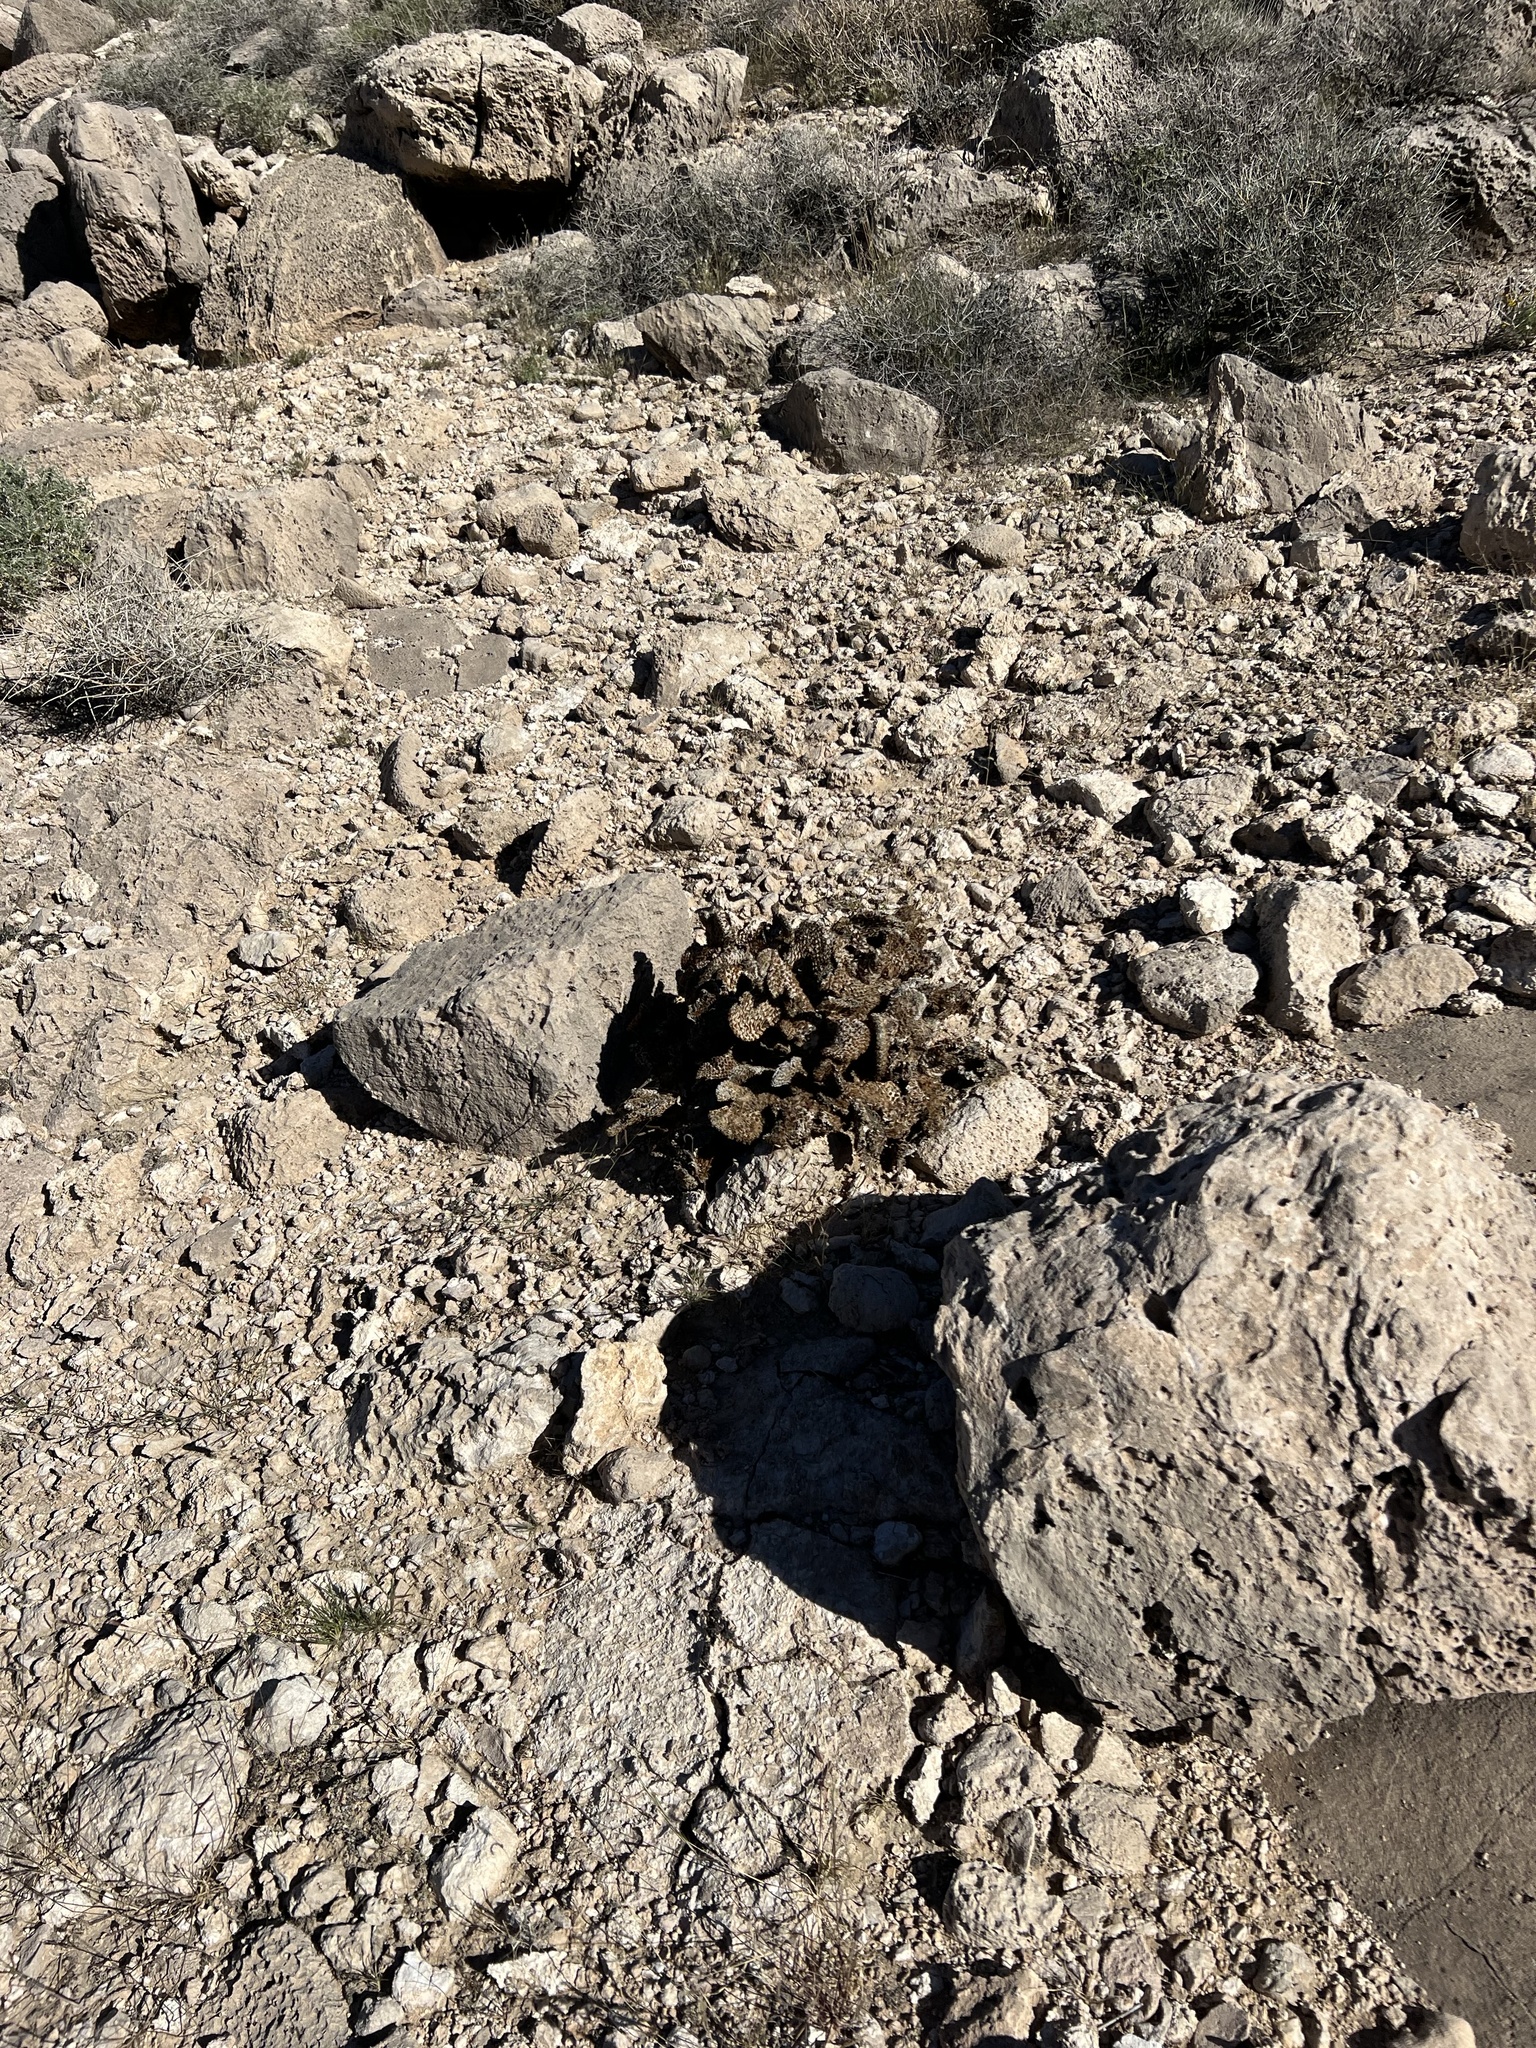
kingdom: Plantae
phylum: Tracheophyta
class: Magnoliopsida
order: Caryophyllales
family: Cactaceae
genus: Opuntia
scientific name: Opuntia basilaris
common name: Beavertail prickly-pear
